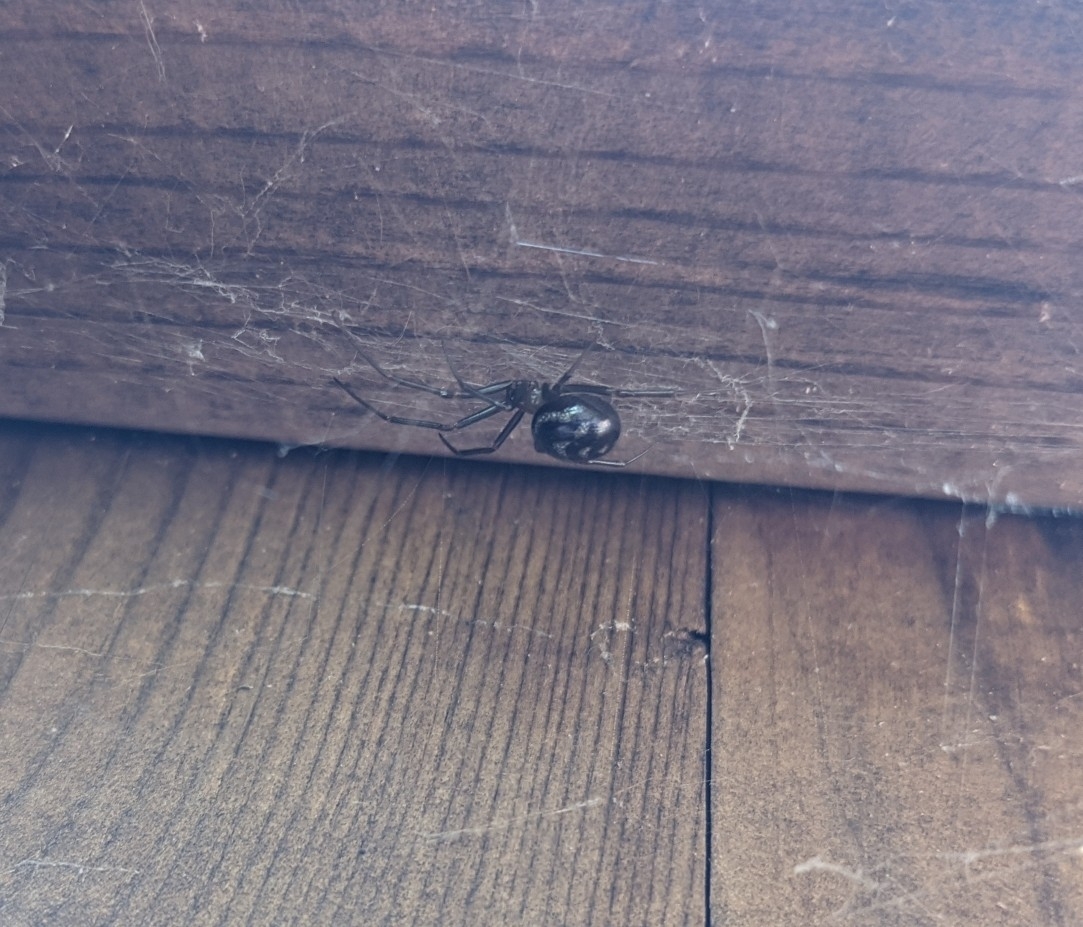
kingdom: Animalia
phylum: Arthropoda
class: Arachnida
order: Araneae
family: Theridiidae
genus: Steatoda
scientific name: Steatoda grossa
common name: False black widow
